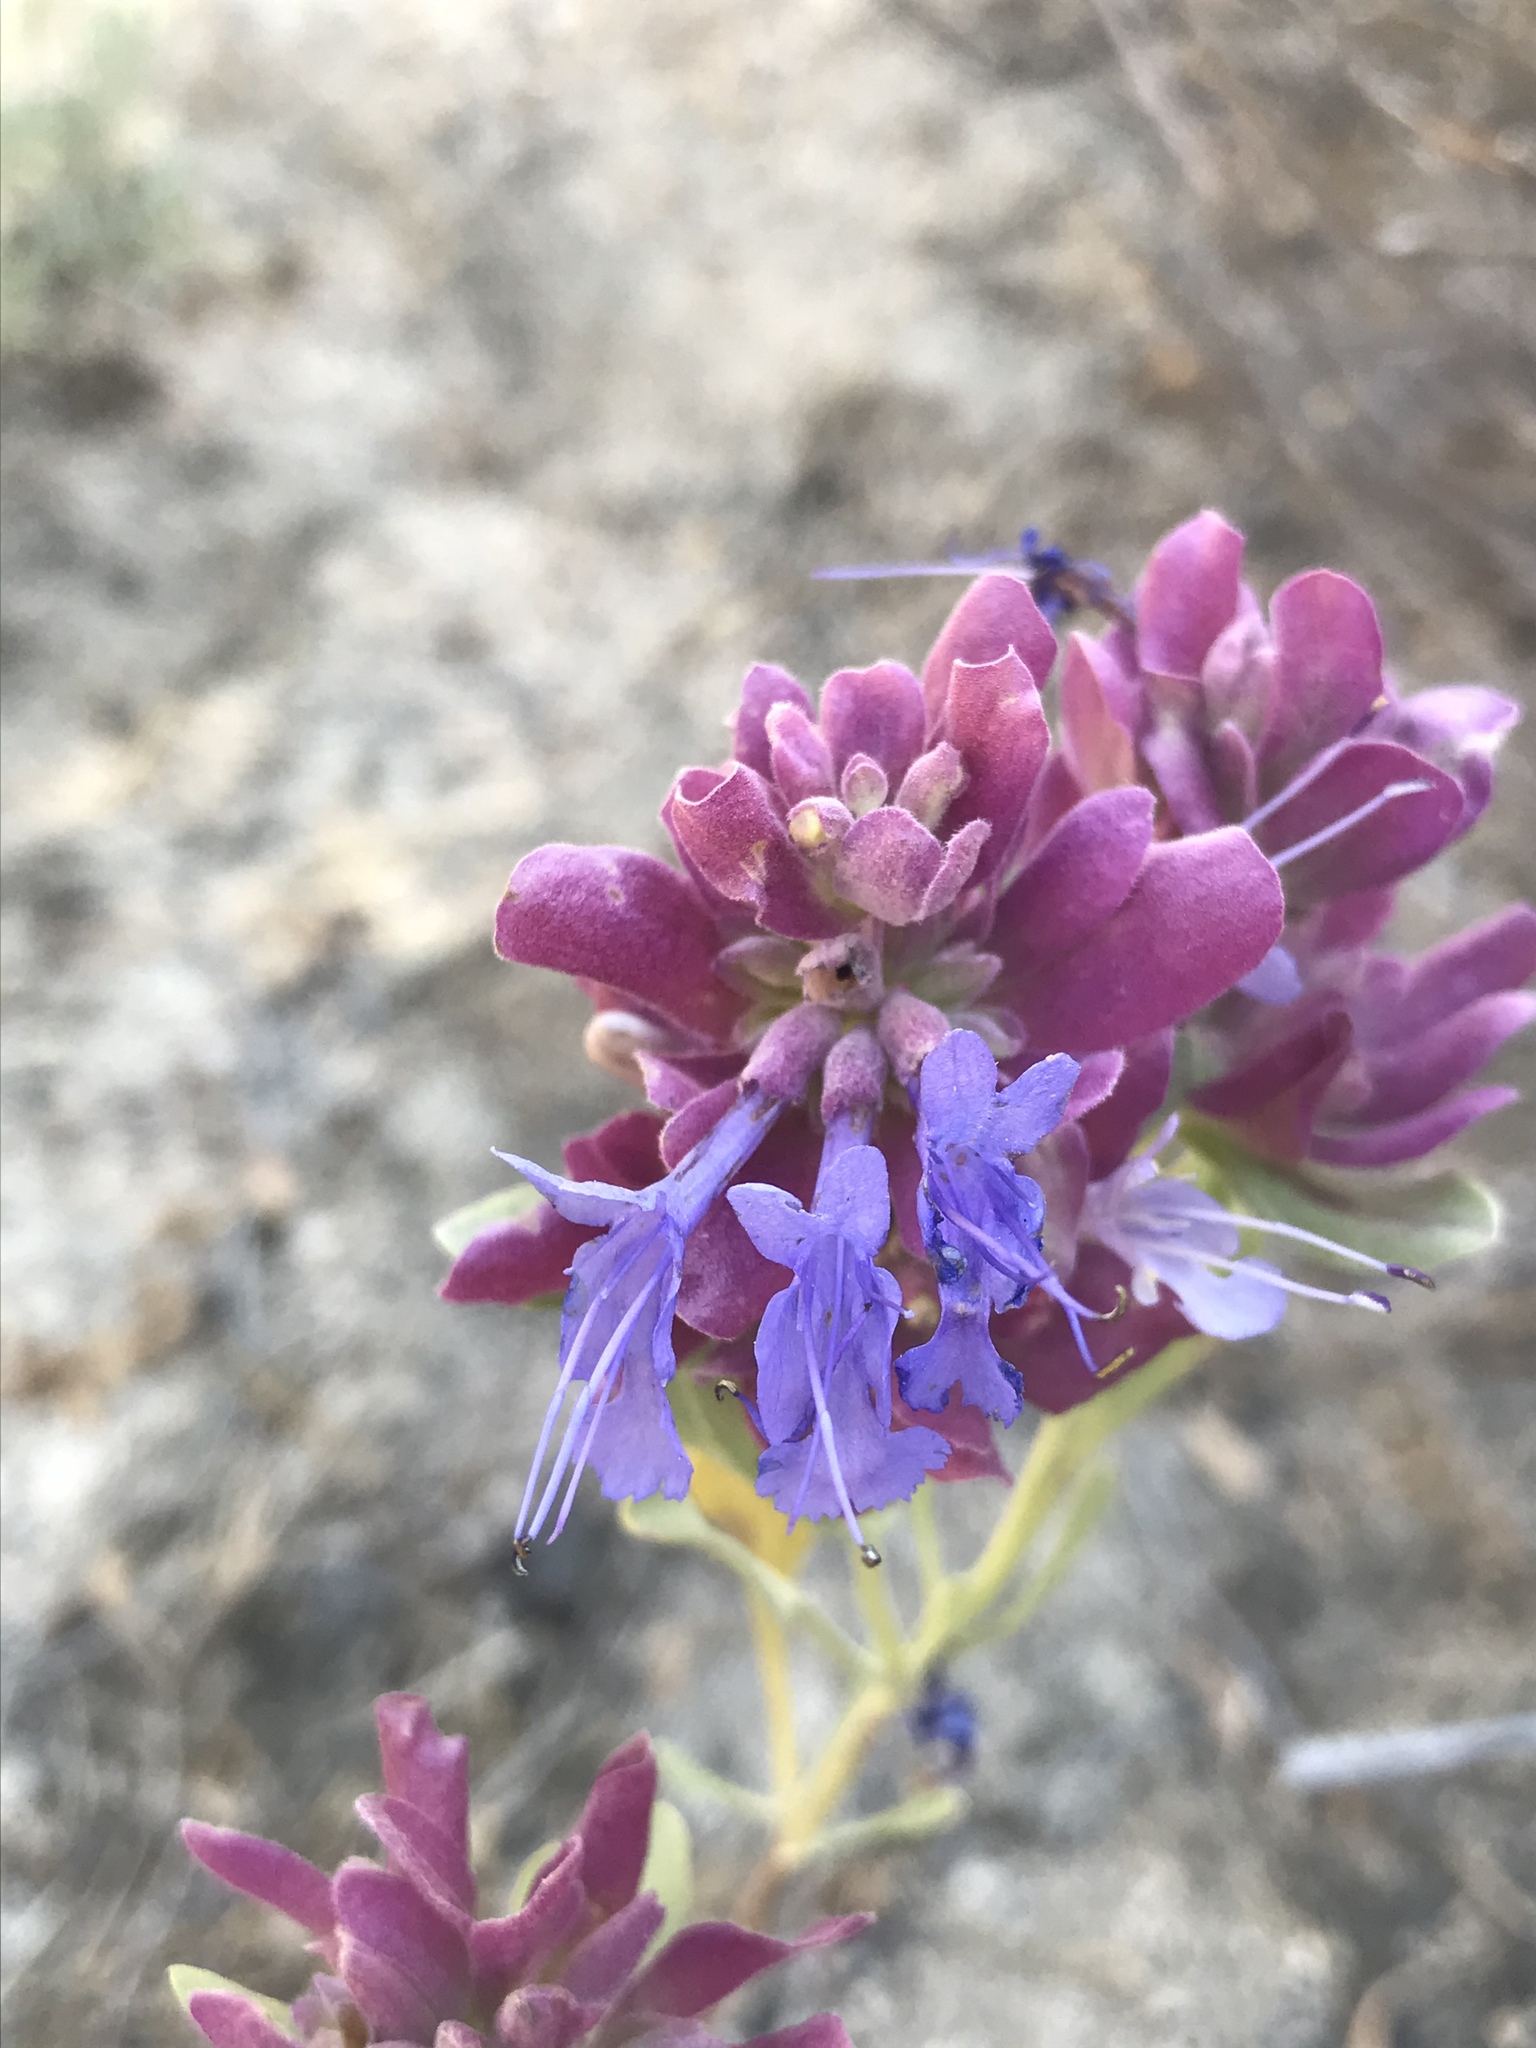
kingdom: Plantae
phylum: Tracheophyta
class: Magnoliopsida
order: Lamiales
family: Lamiaceae
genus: Salvia
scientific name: Salvia pachyphylla
